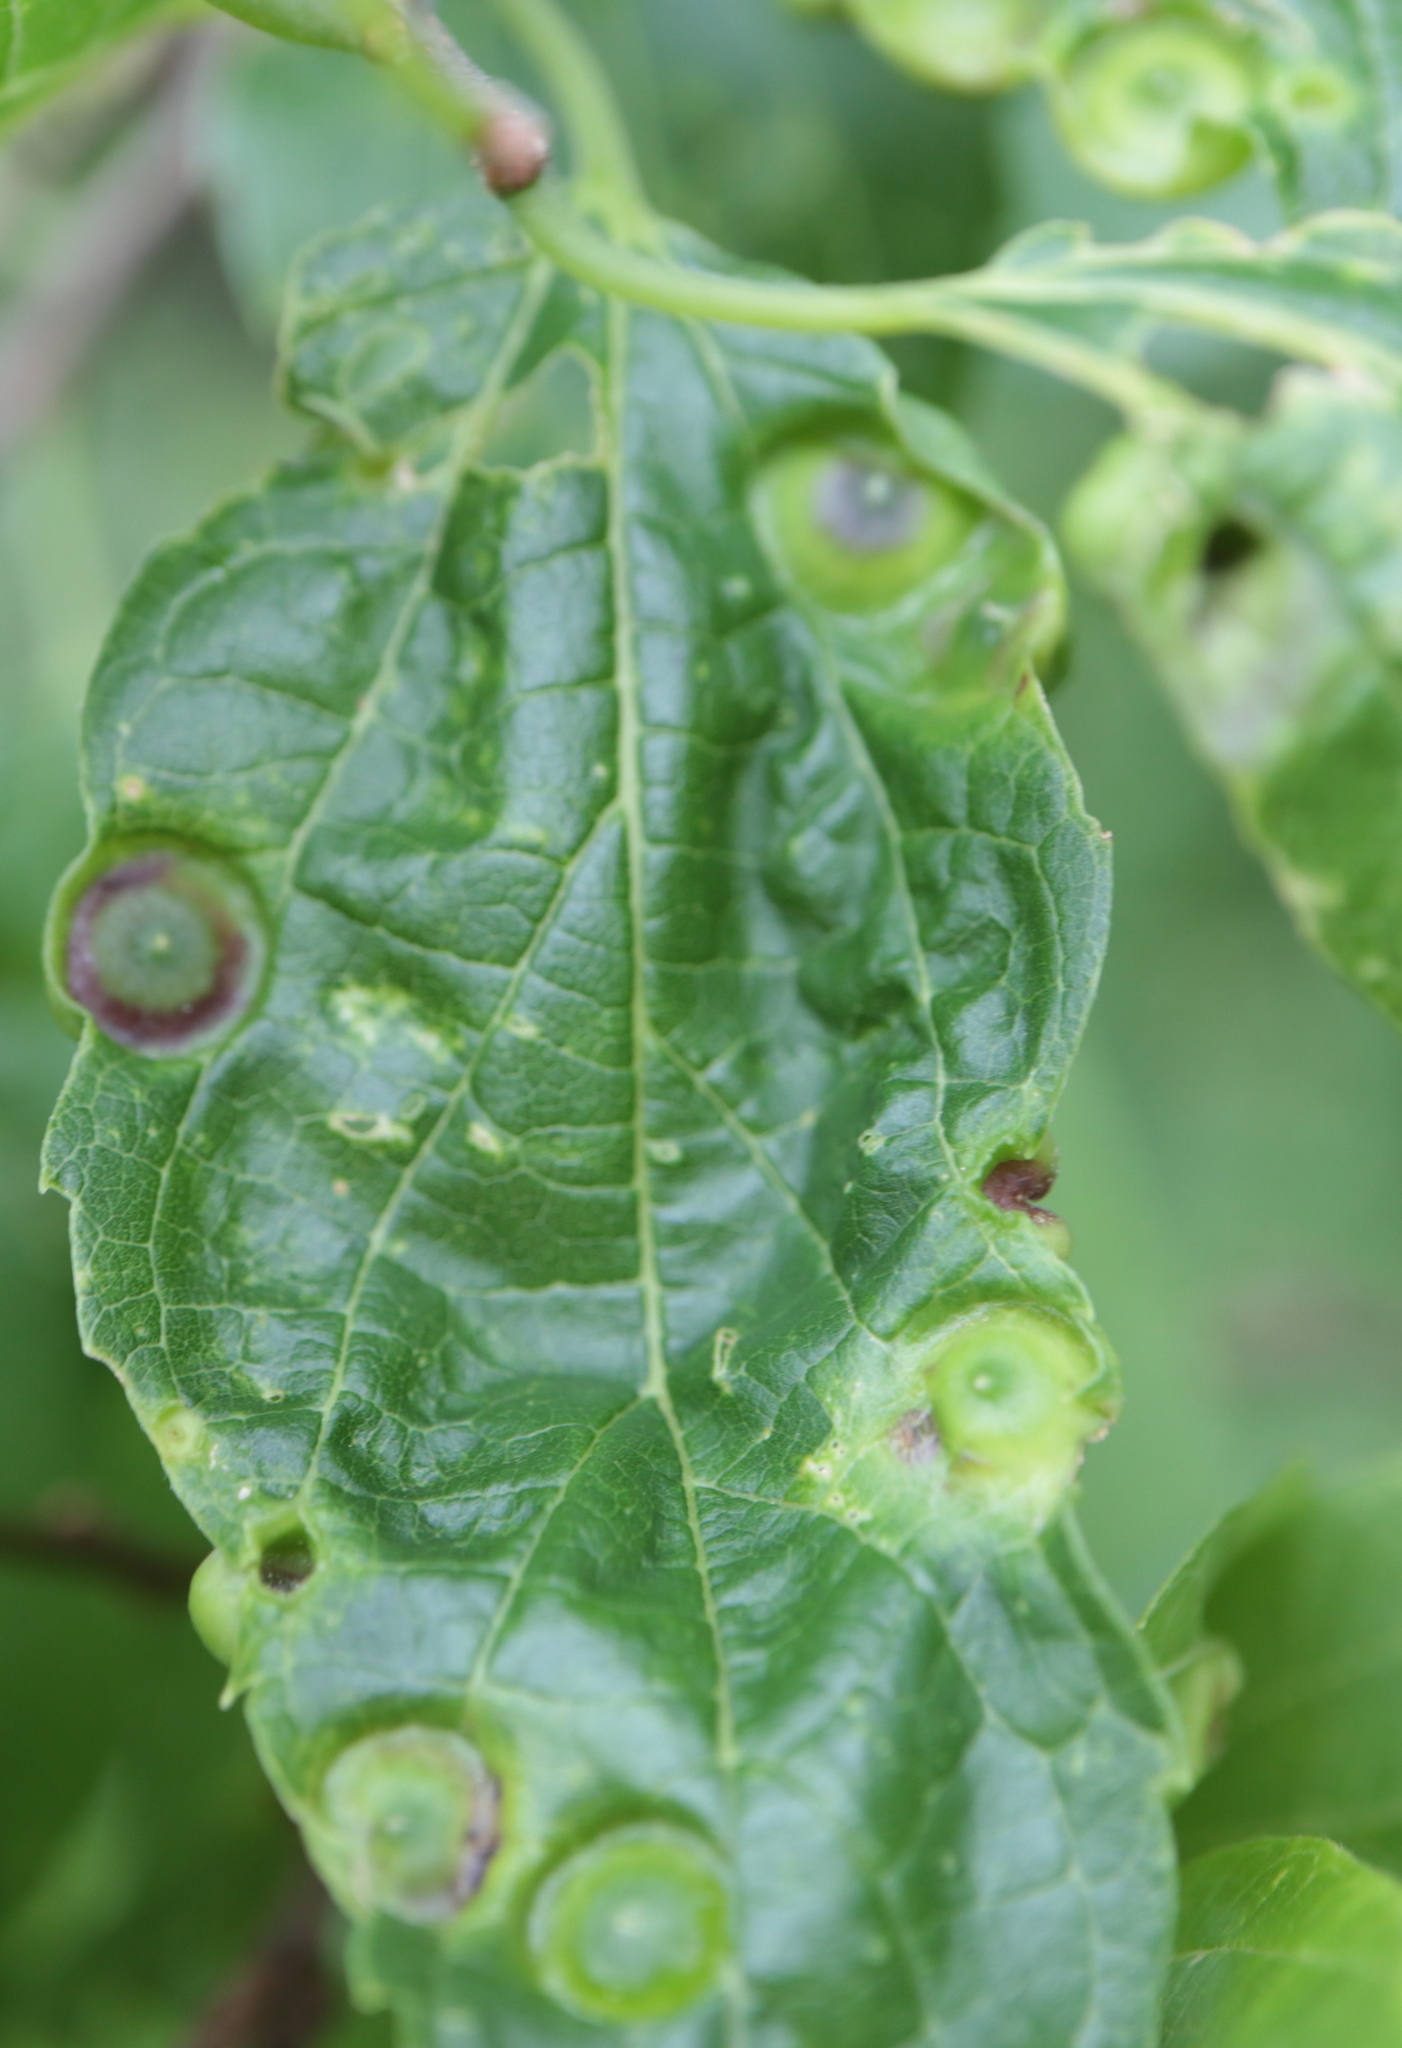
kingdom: Animalia
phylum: Arthropoda
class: Insecta
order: Hemiptera
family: Aphalaridae
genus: Pachypsylla
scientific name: Pachypsylla celtidisumbilicus
